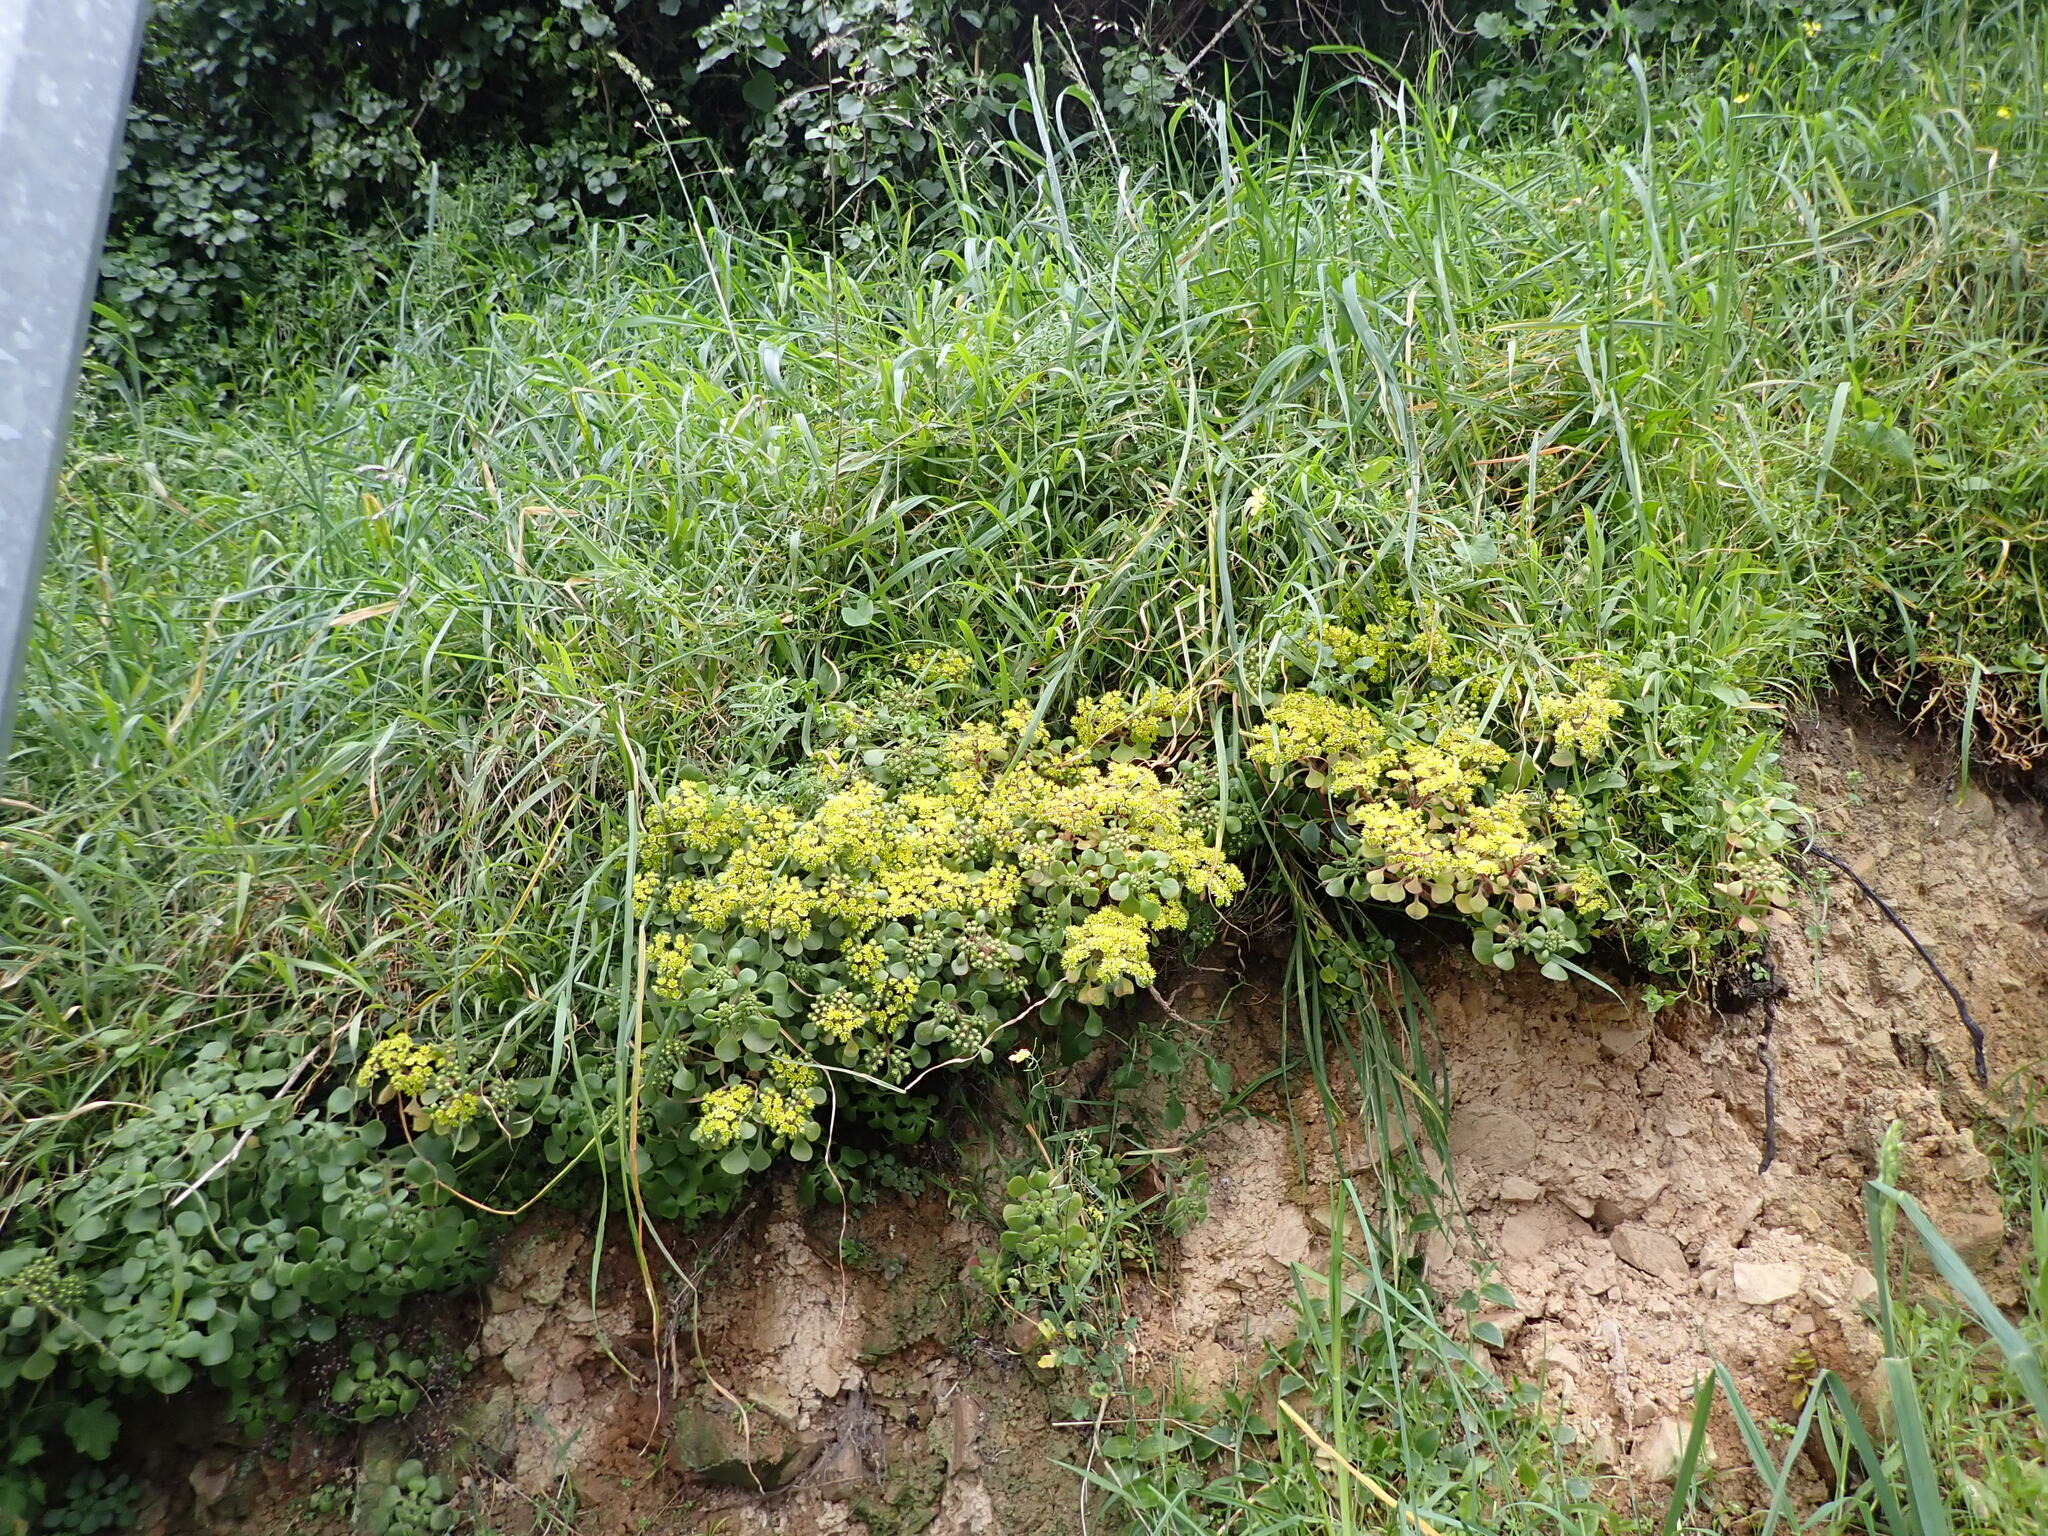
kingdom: Plantae
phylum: Tracheophyta
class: Magnoliopsida
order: Saxifragales
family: Crassulaceae
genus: Aichryson
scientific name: Aichryson laxum
